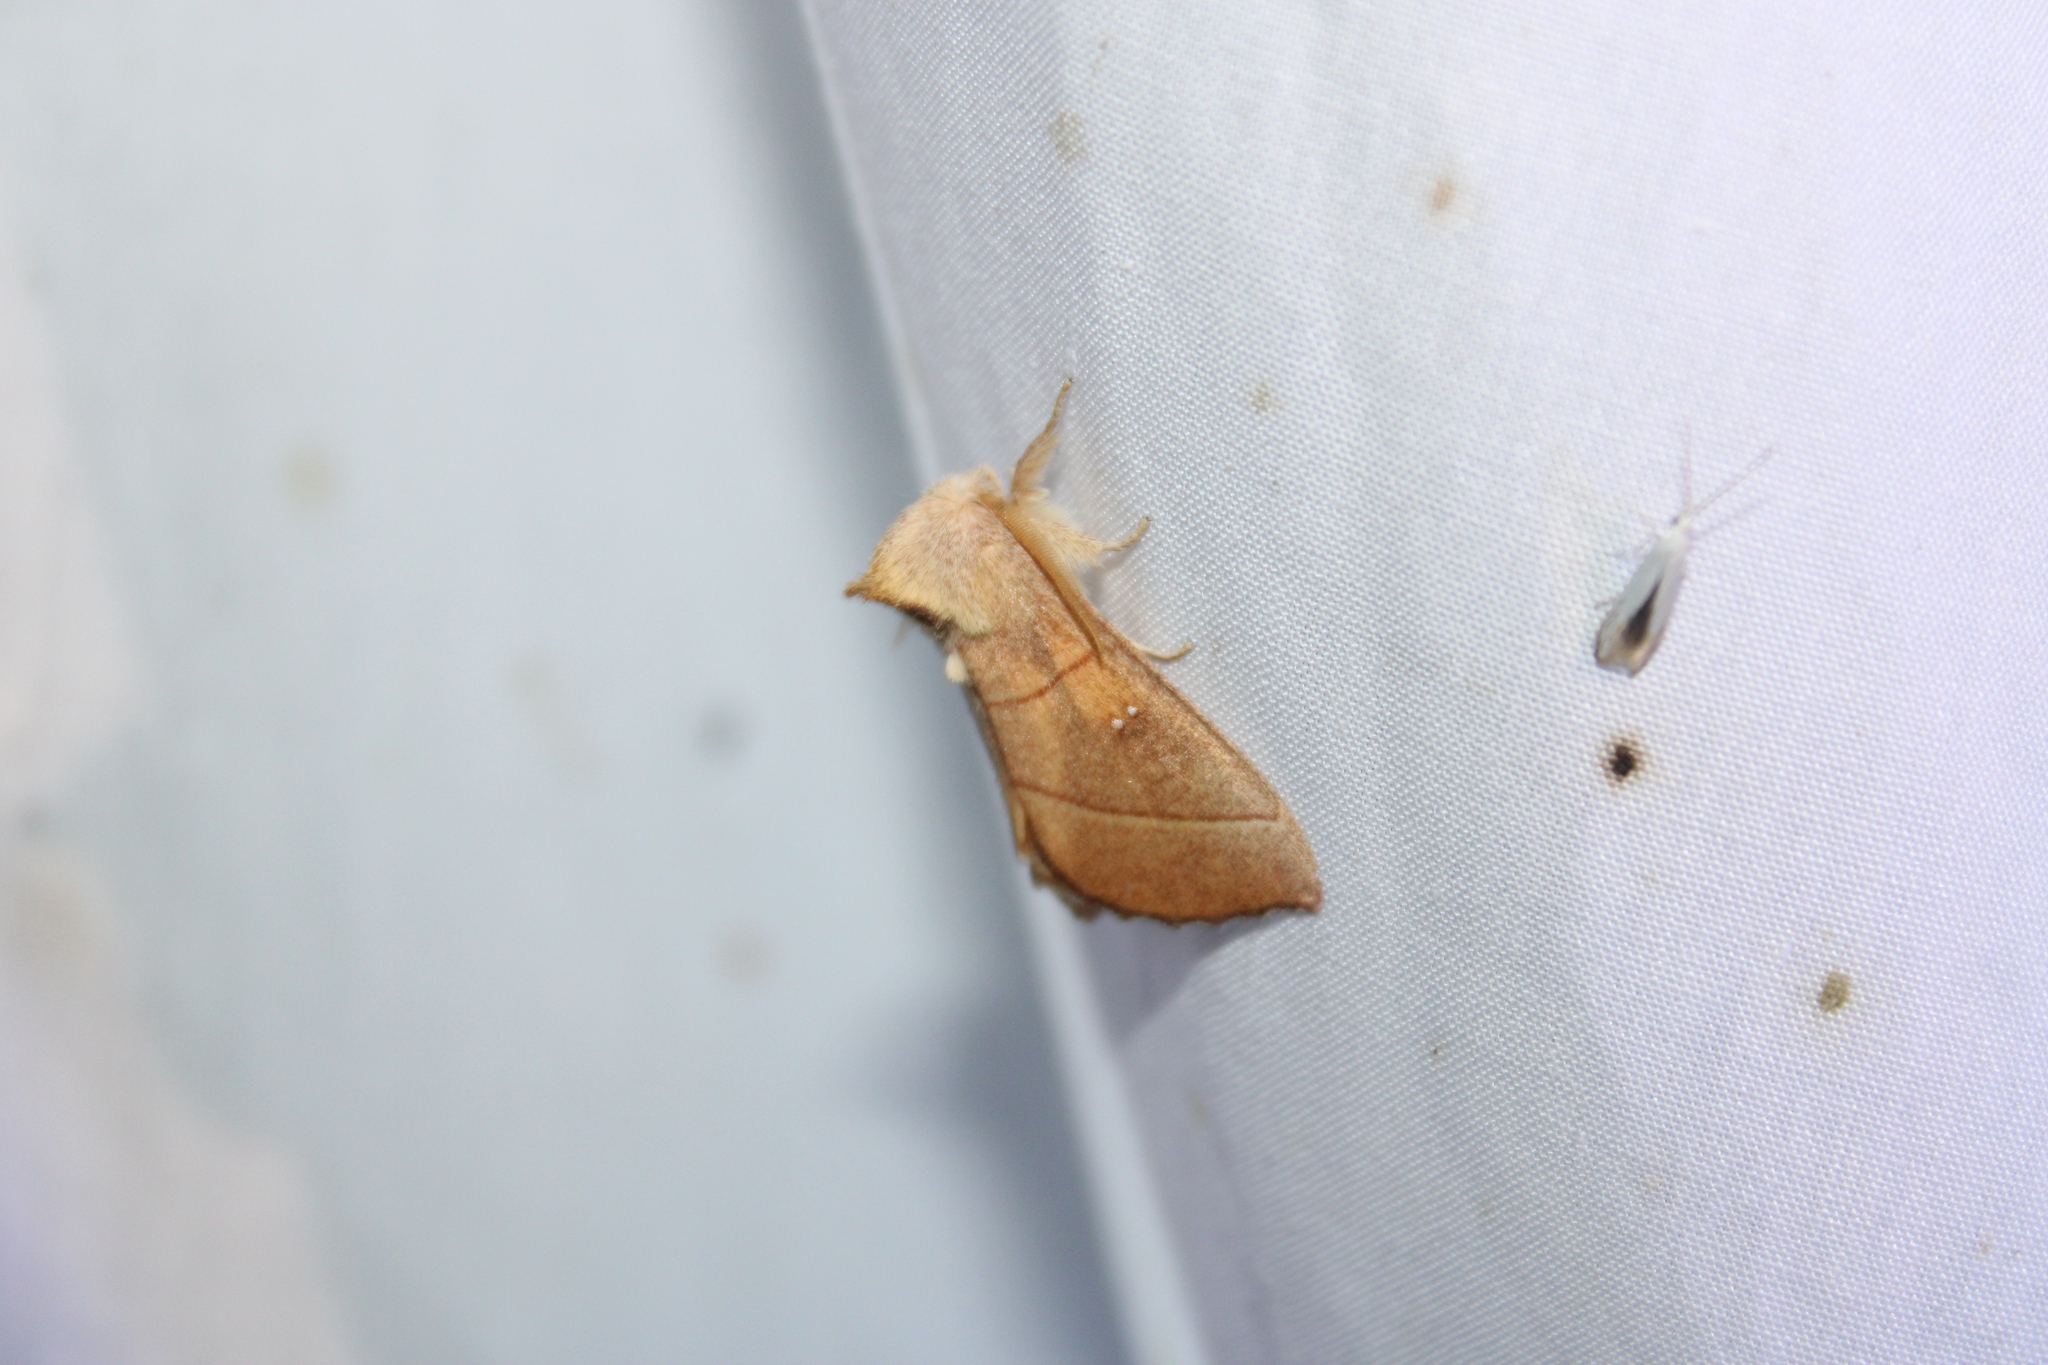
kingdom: Animalia
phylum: Arthropoda
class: Insecta
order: Lepidoptera
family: Notodontidae
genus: Nadata
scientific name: Nadata gibbosa
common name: White-dotted prominent
